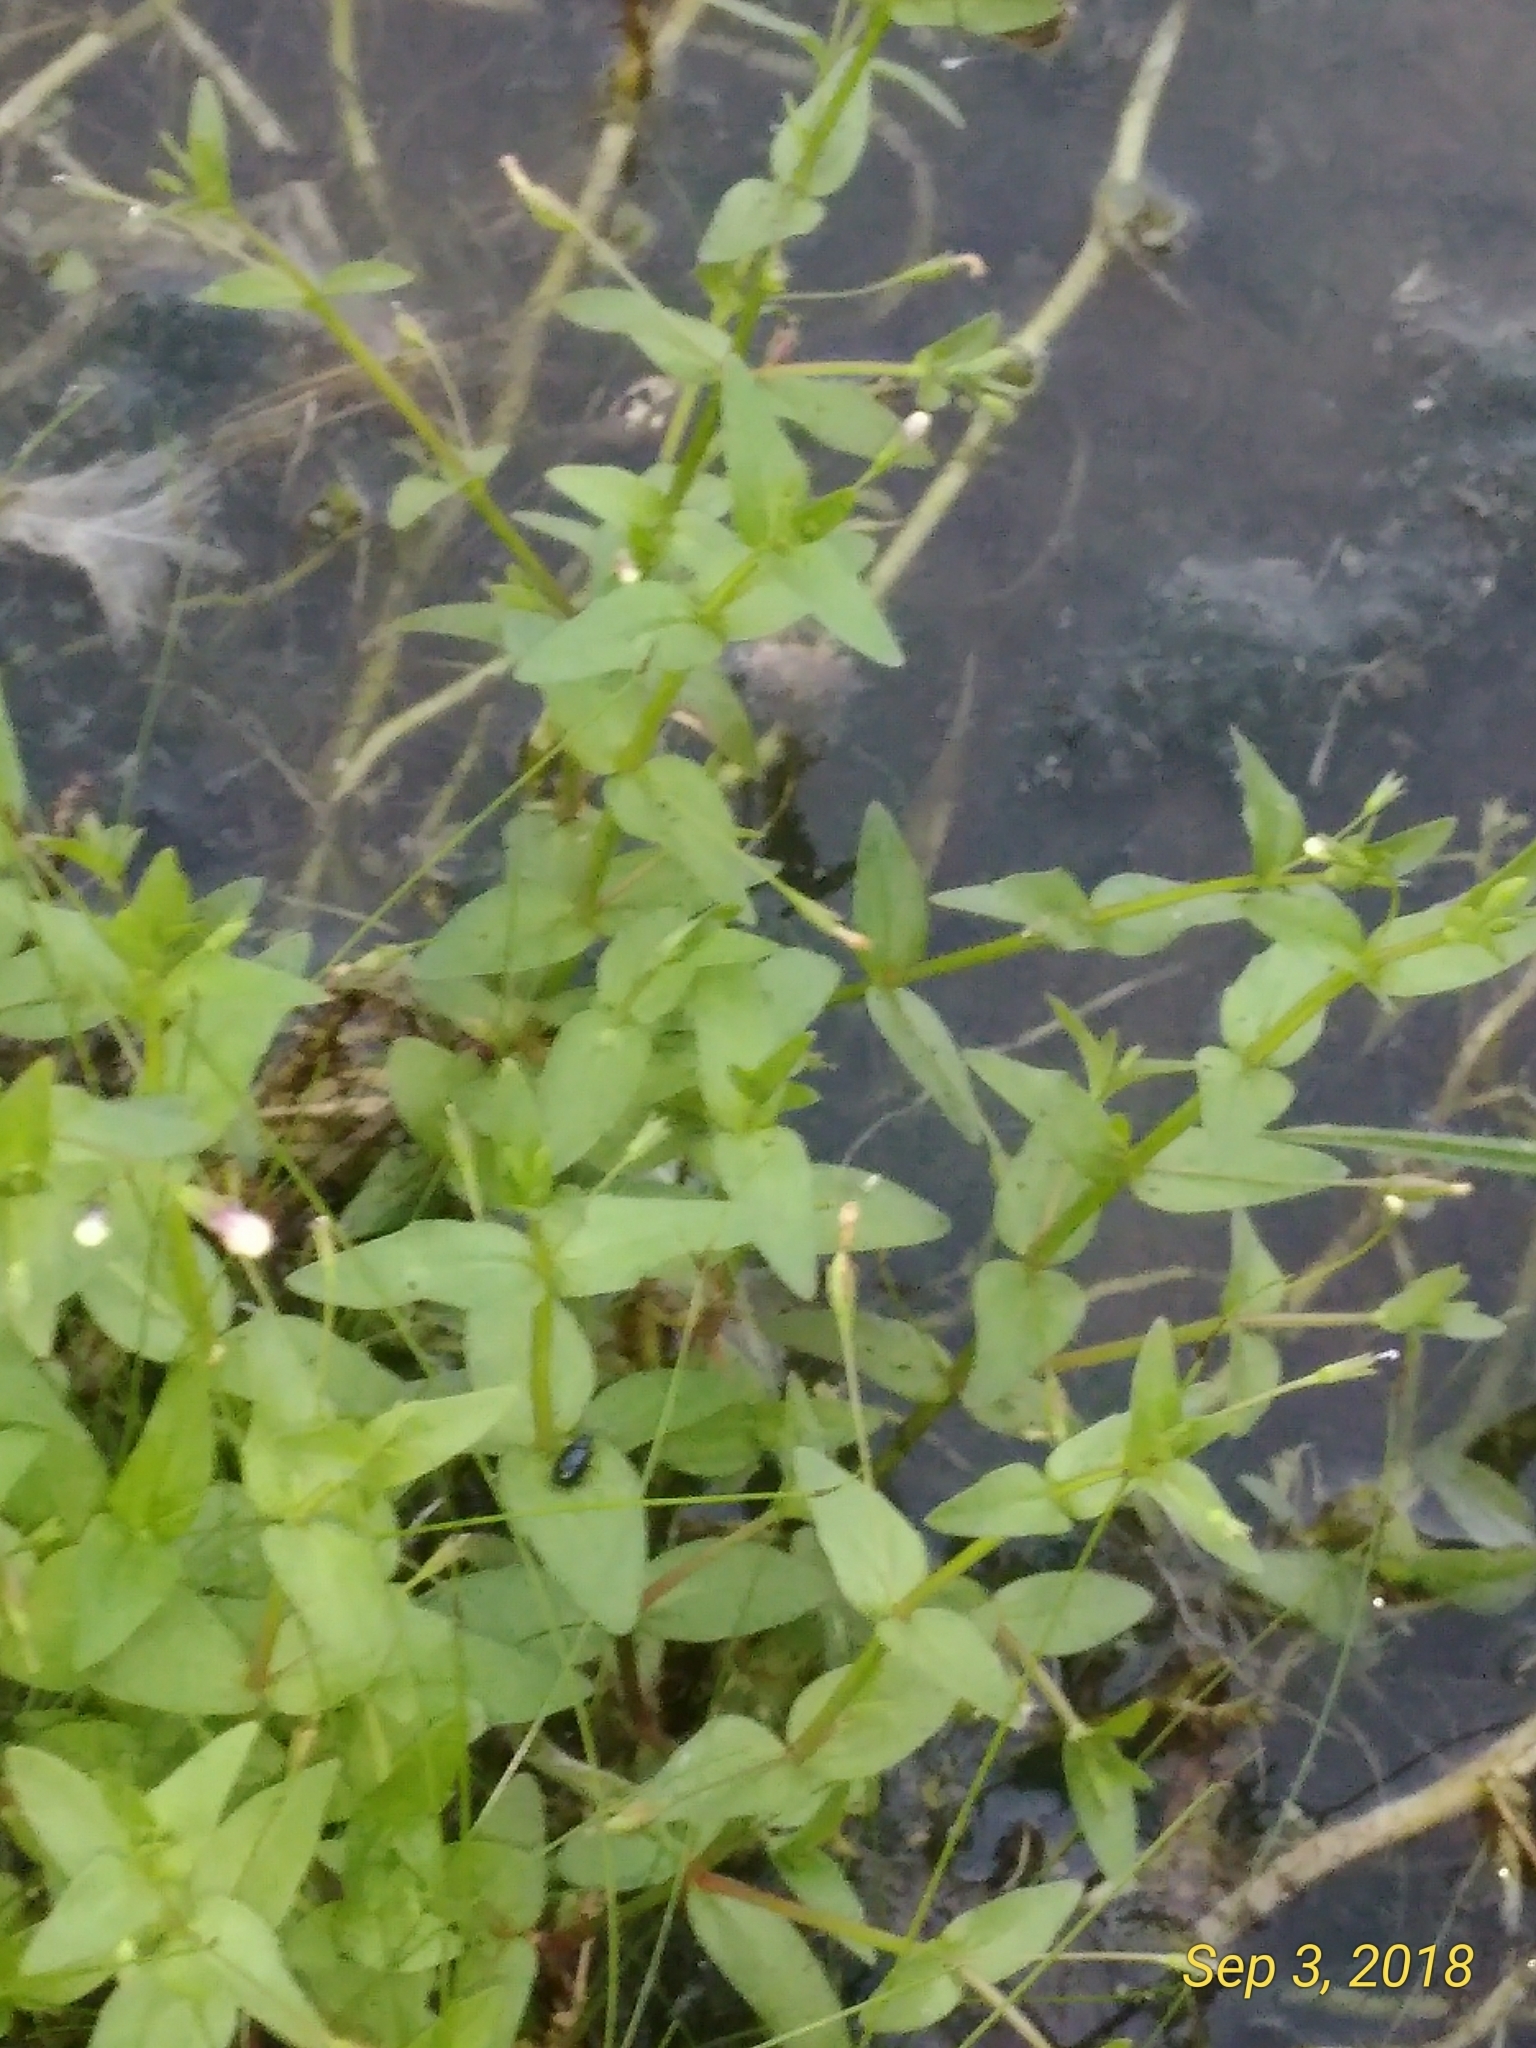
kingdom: Plantae
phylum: Tracheophyta
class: Magnoliopsida
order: Lamiales
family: Linderniaceae
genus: Lindernia
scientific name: Lindernia dubia
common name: Annual false pimpernel
